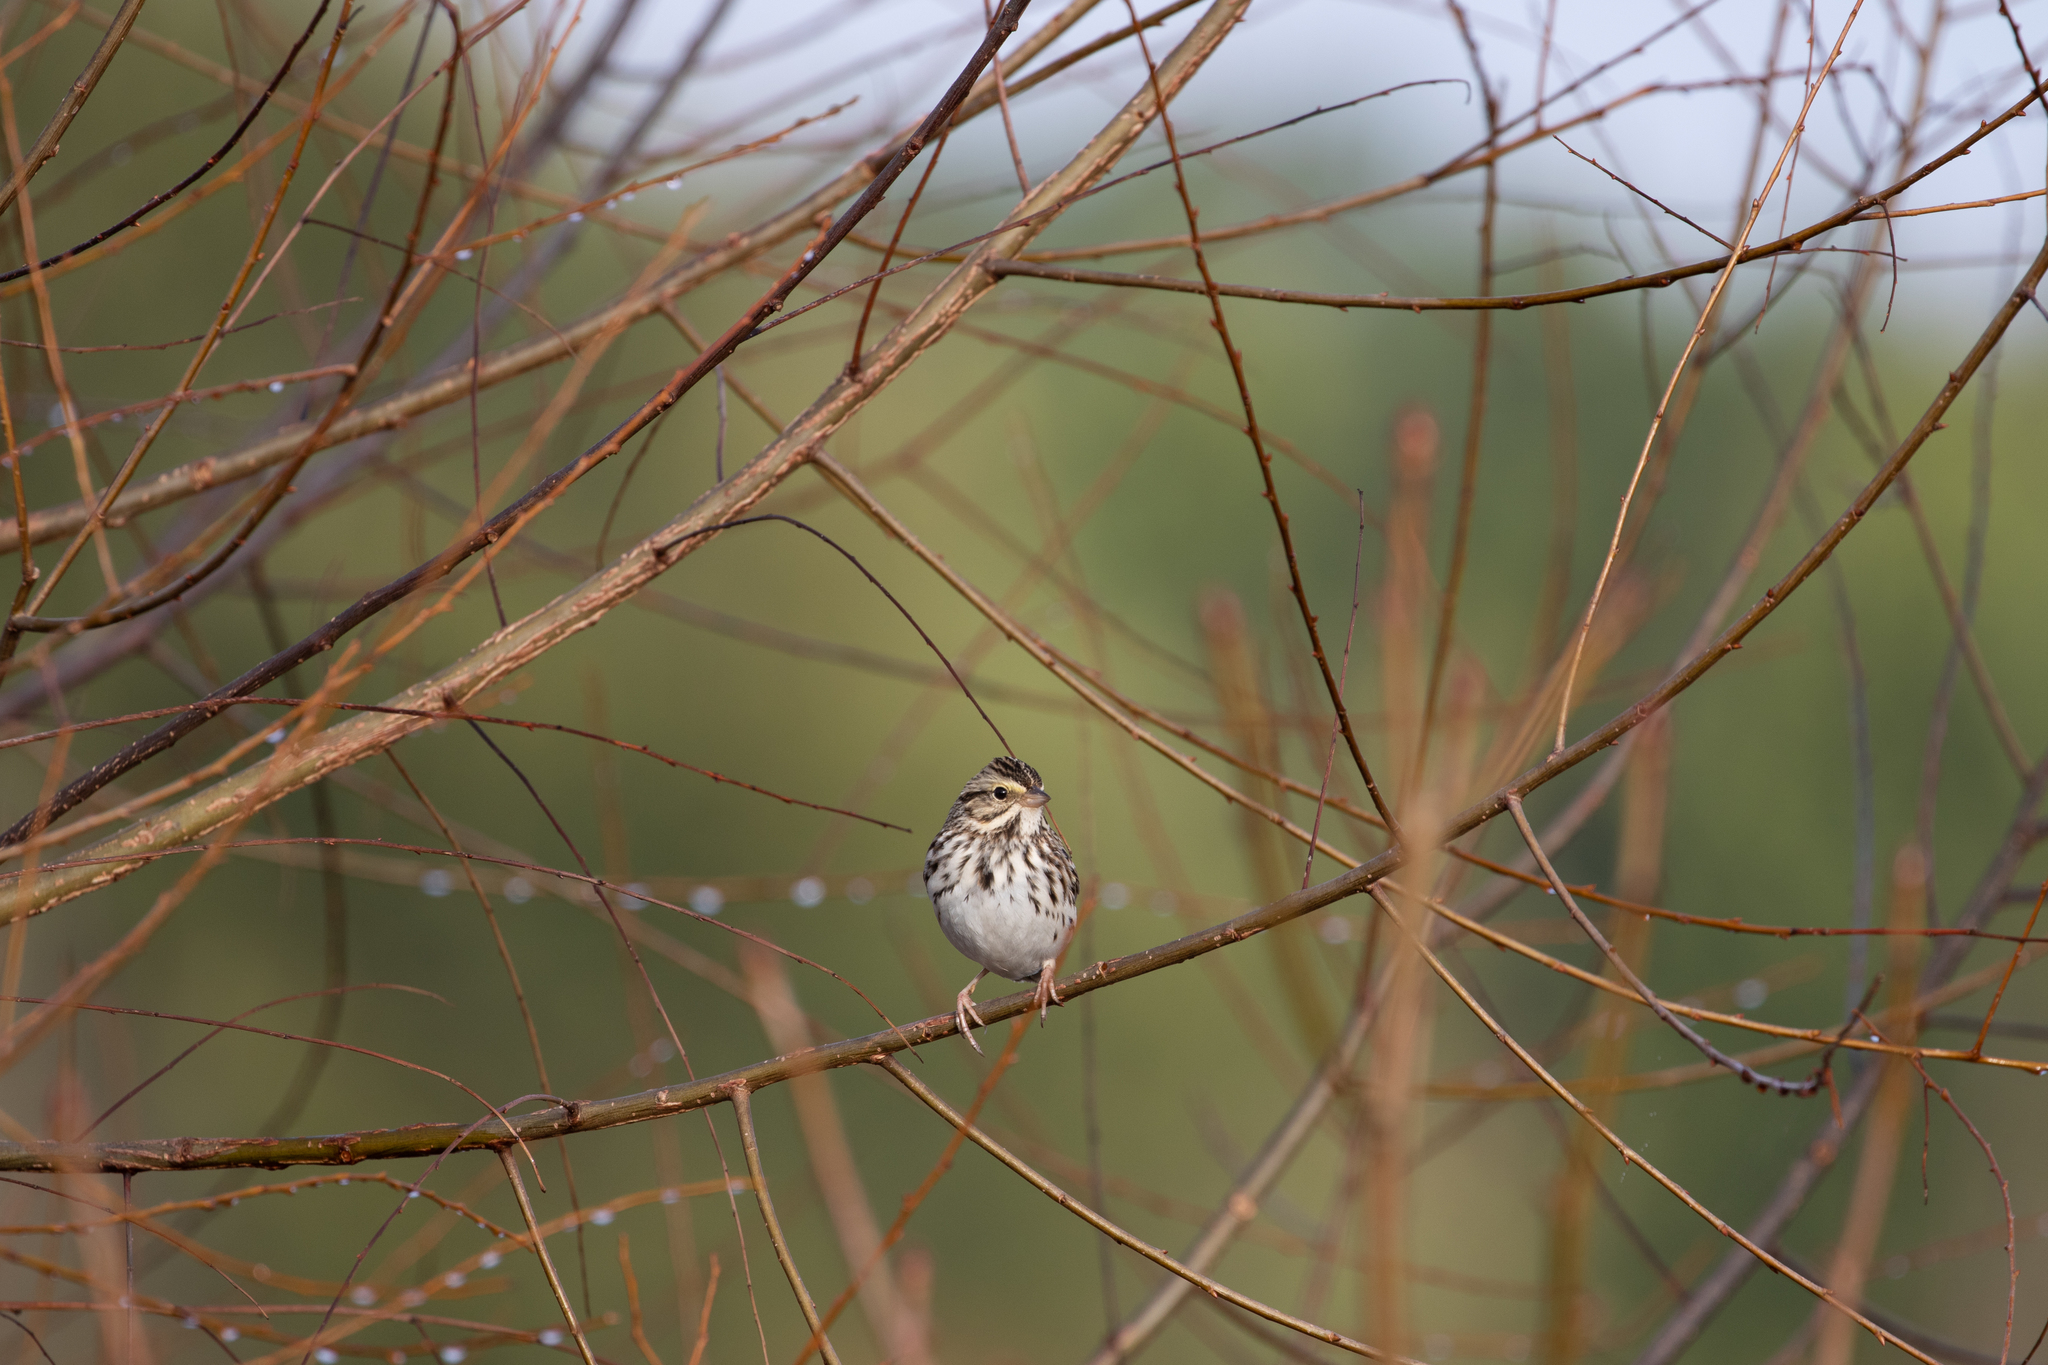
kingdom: Animalia
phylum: Chordata
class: Aves
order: Passeriformes
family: Passerellidae
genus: Passerculus
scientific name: Passerculus sandwichensis
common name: Savannah sparrow
